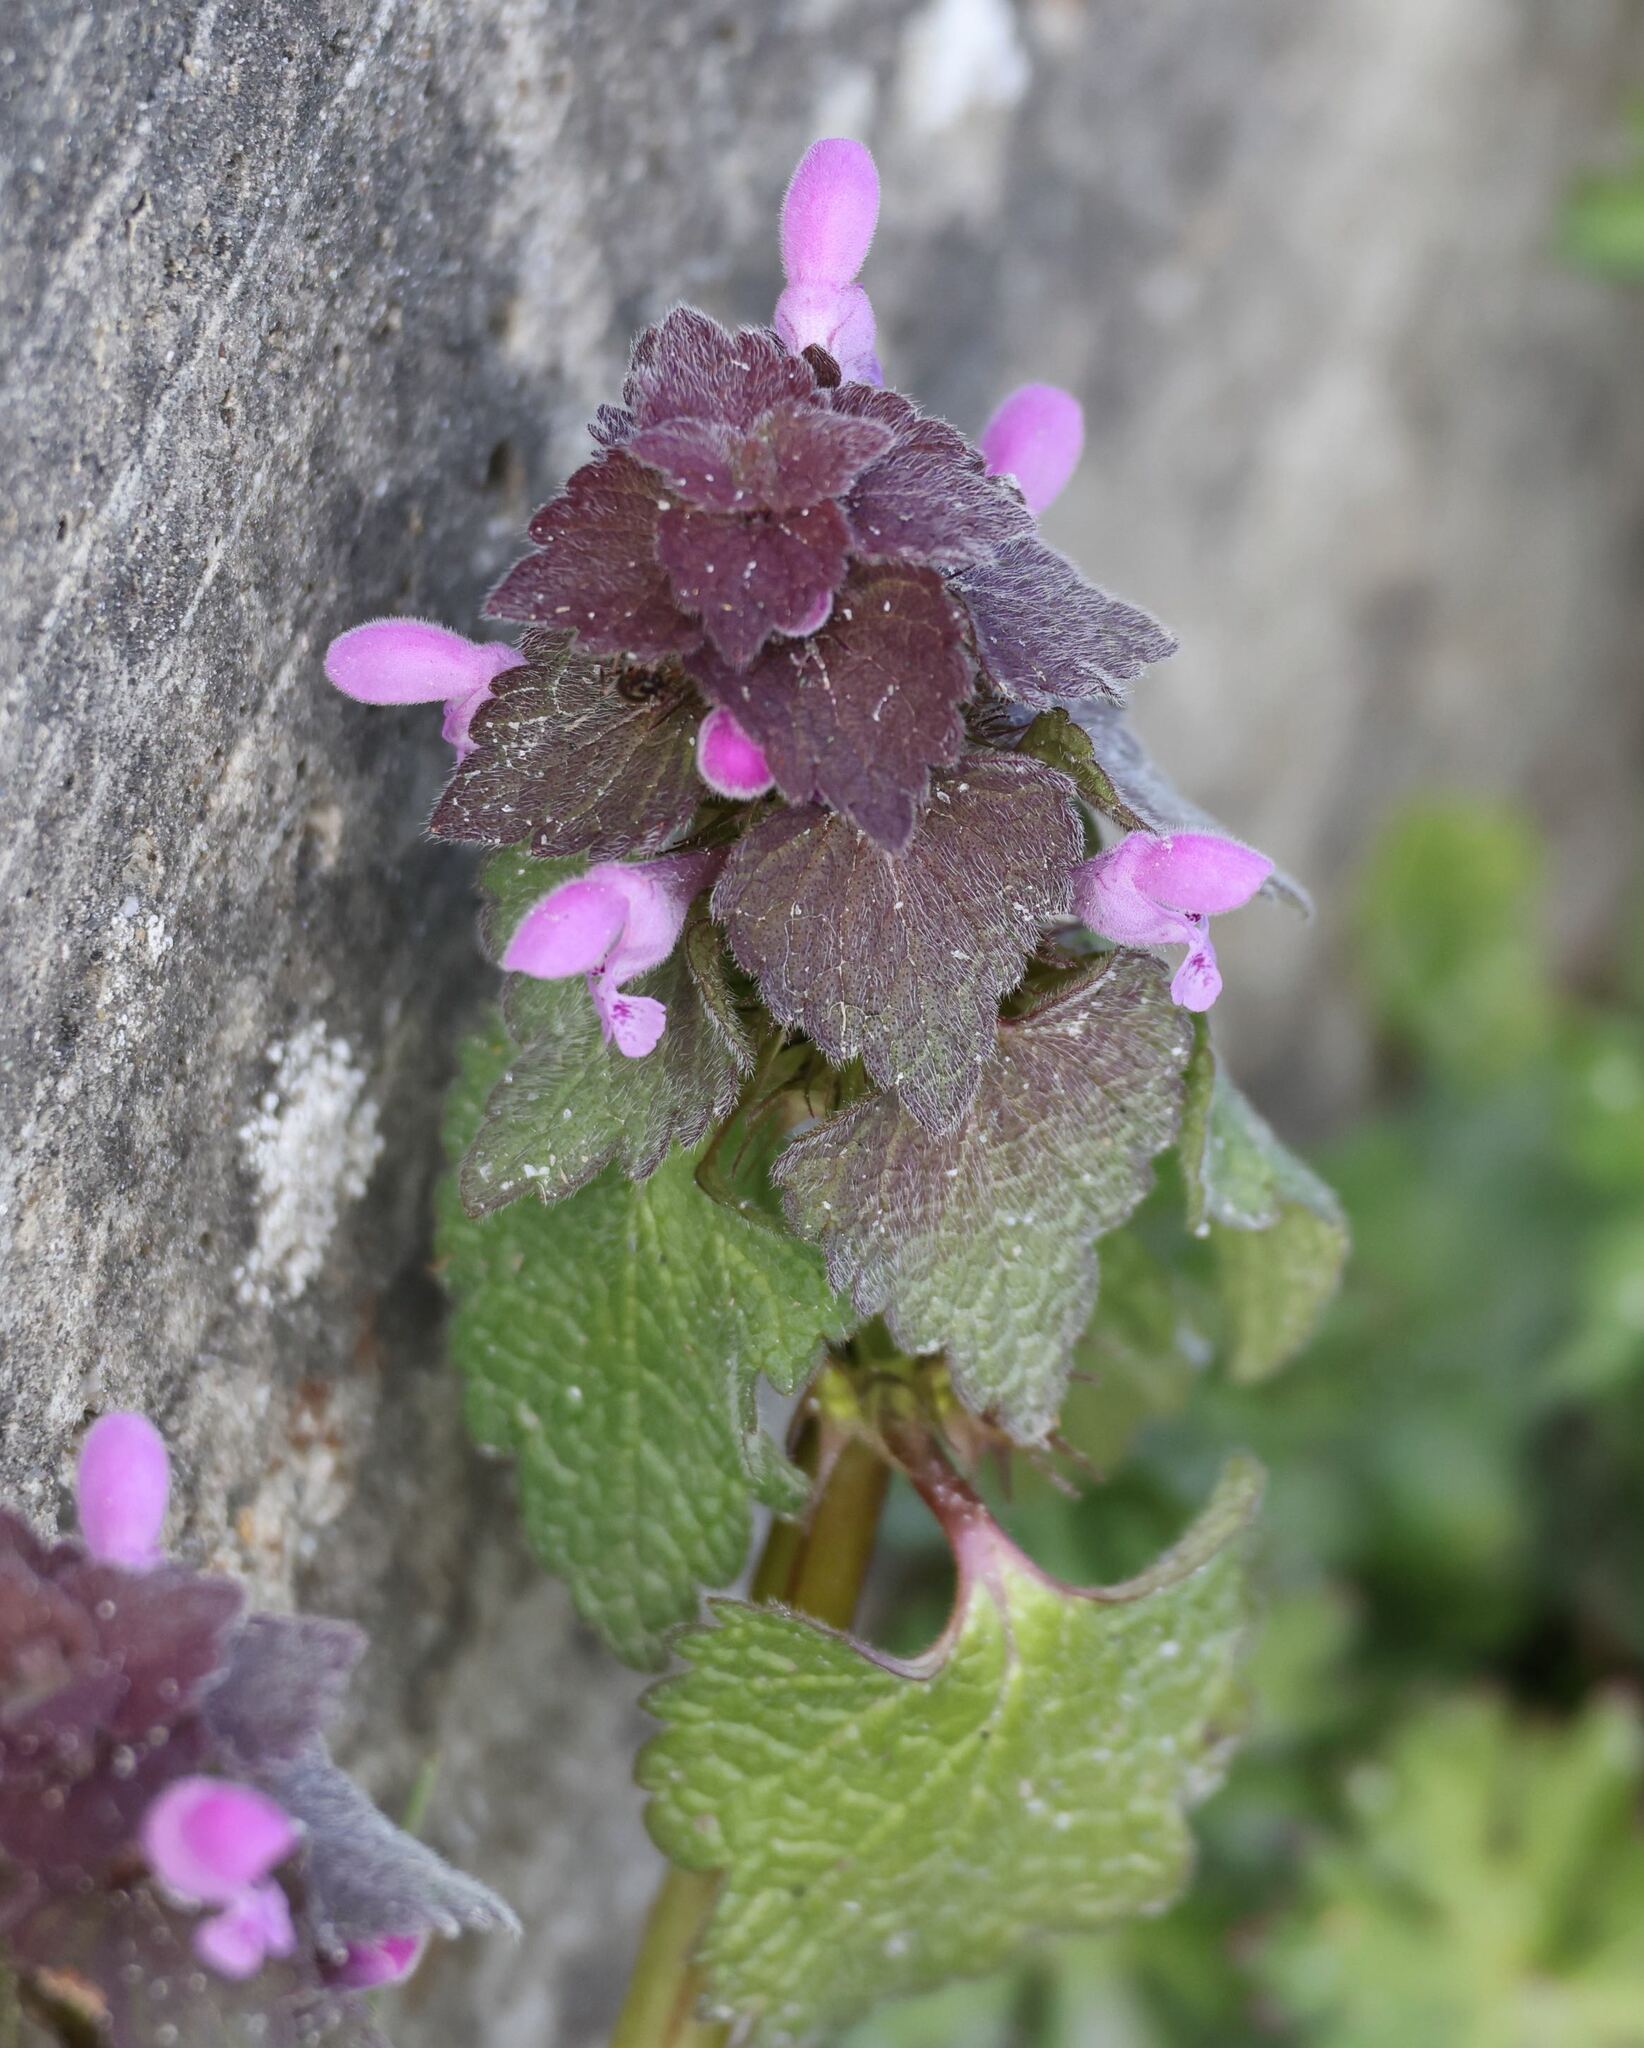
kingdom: Plantae
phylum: Tracheophyta
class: Magnoliopsida
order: Lamiales
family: Lamiaceae
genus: Lamium
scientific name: Lamium purpureum
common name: Red dead-nettle
